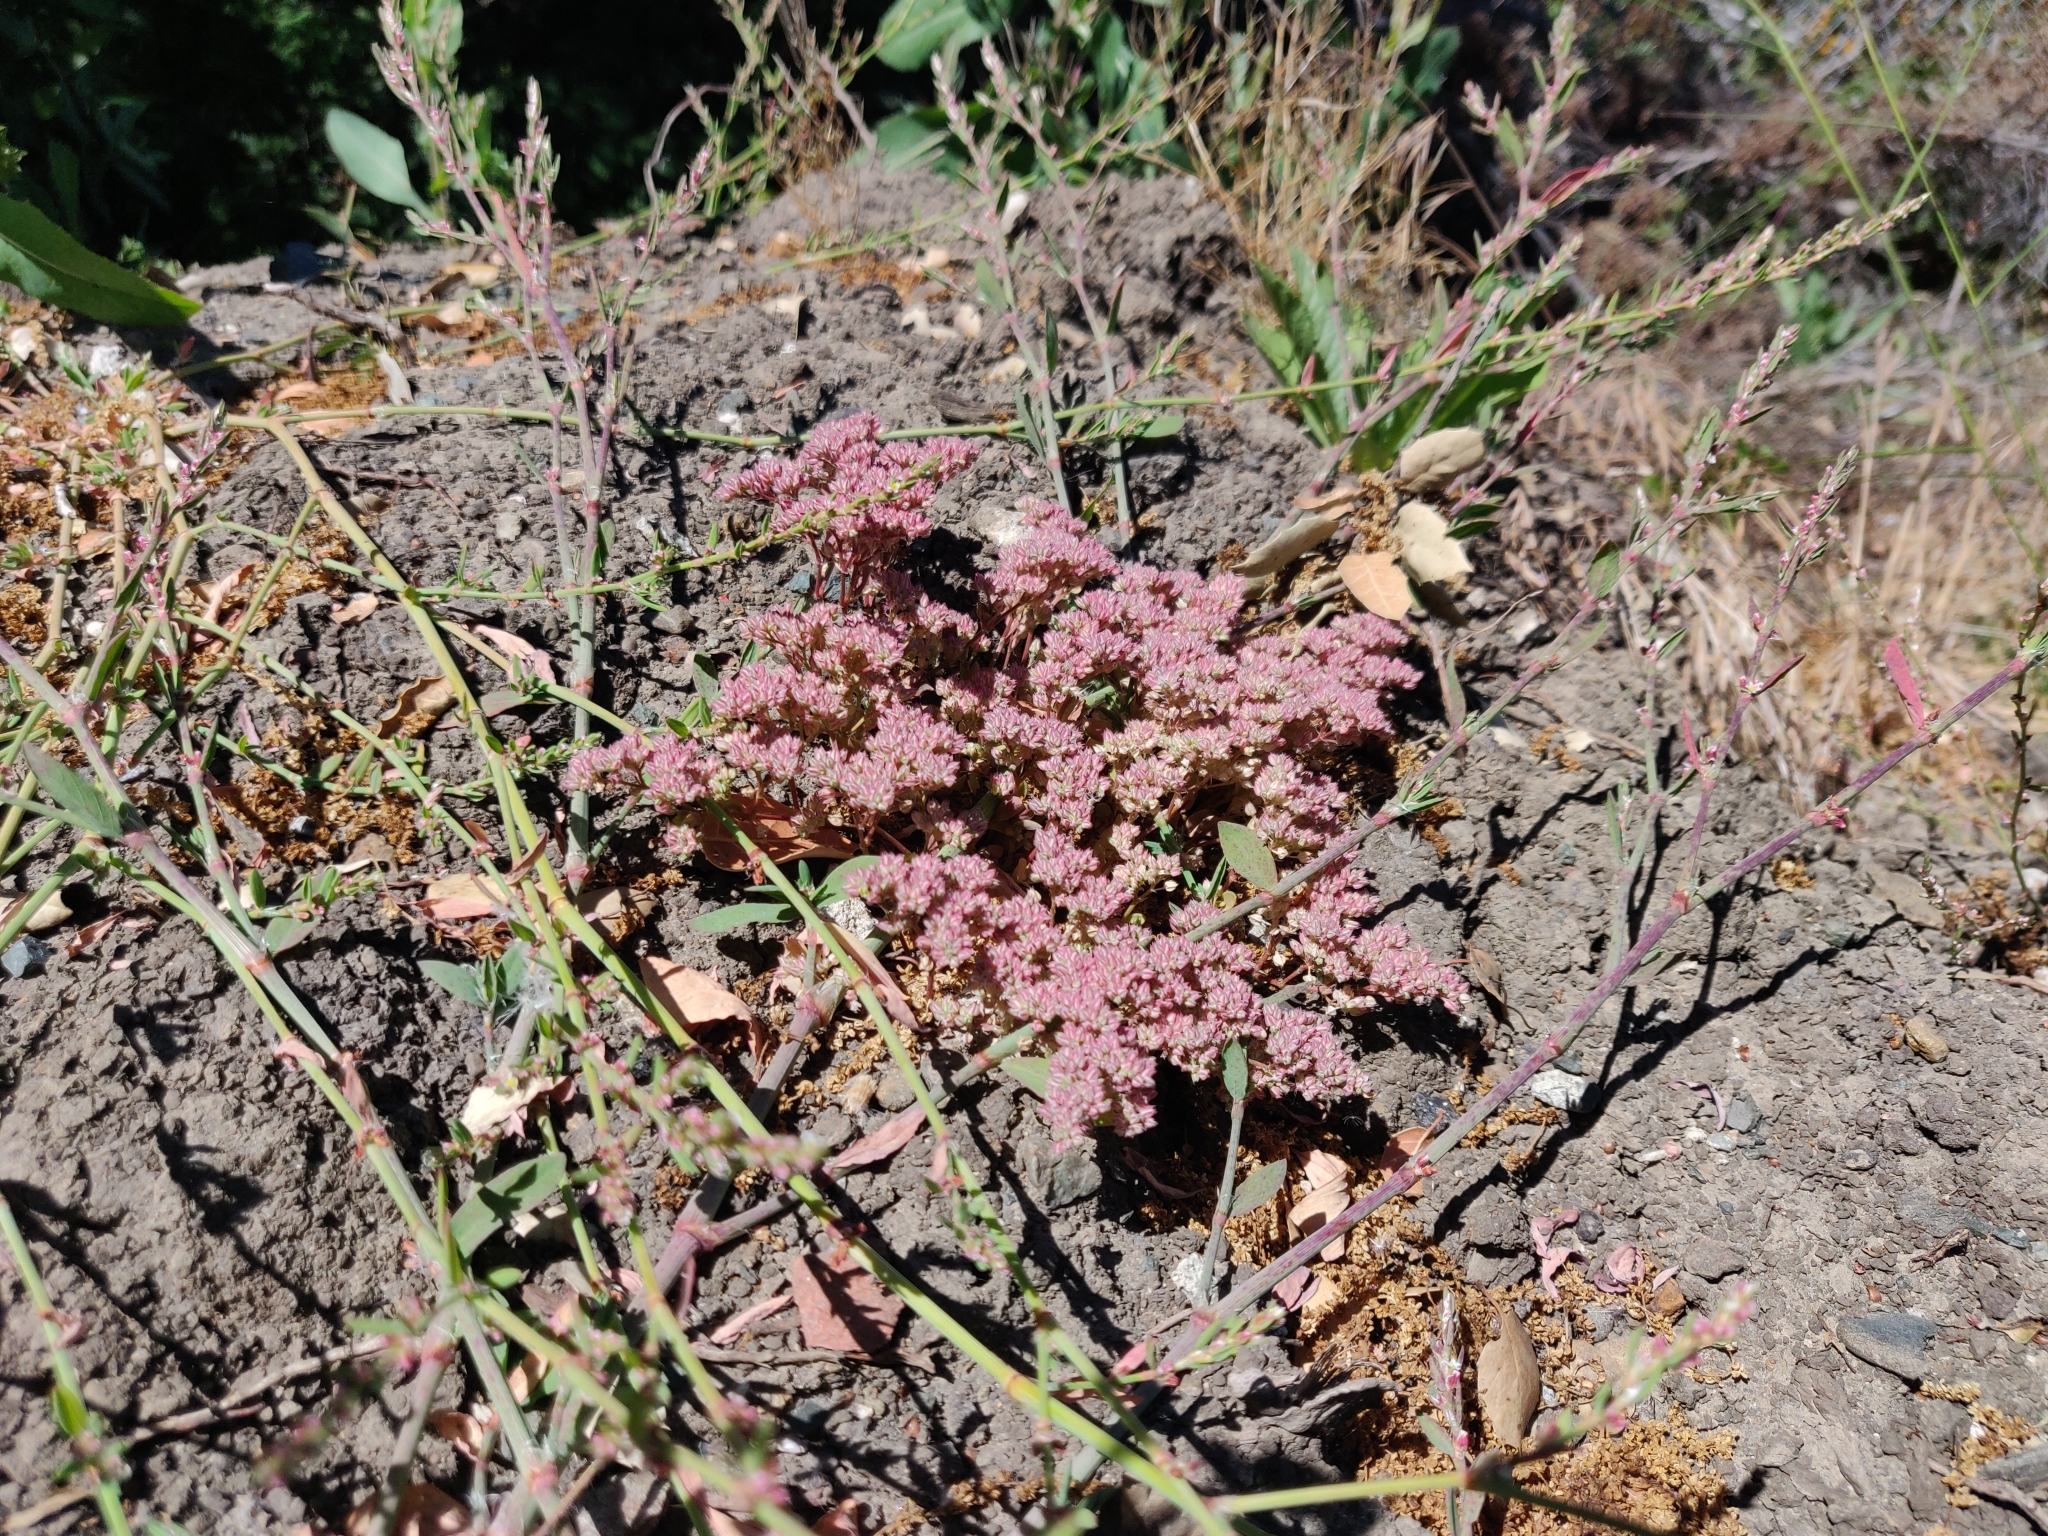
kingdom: Plantae
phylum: Tracheophyta
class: Magnoliopsida
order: Caryophyllales
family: Caryophyllaceae
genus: Polycarpon
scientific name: Polycarpon tetraphyllum
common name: Four-leaved all-seed
